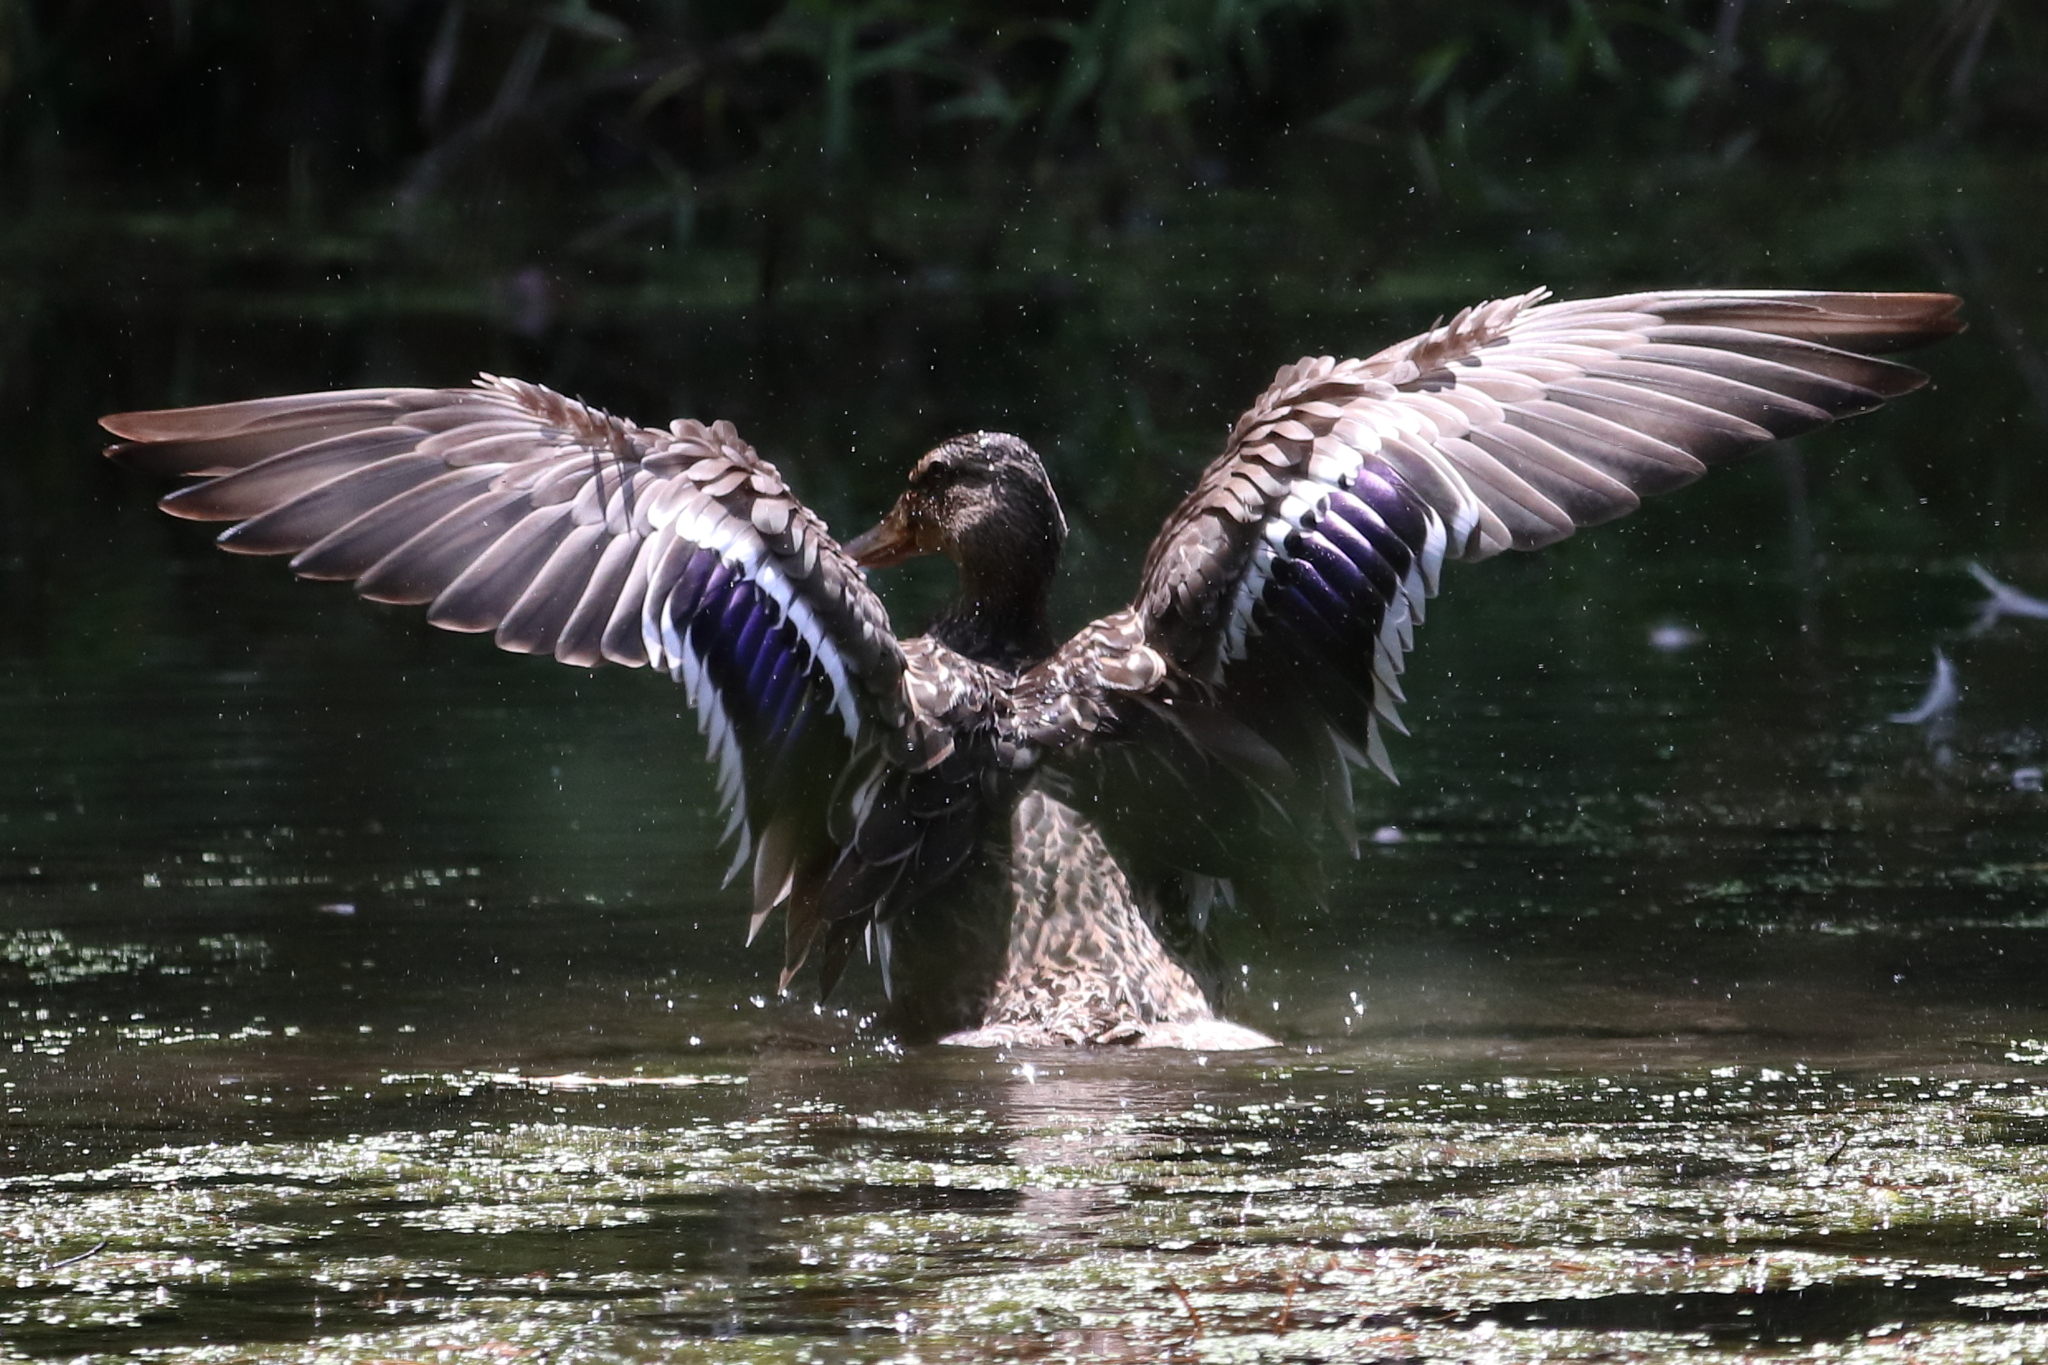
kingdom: Animalia
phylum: Chordata
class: Aves
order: Anseriformes
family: Anatidae
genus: Anas
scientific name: Anas platyrhynchos
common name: Mallard
